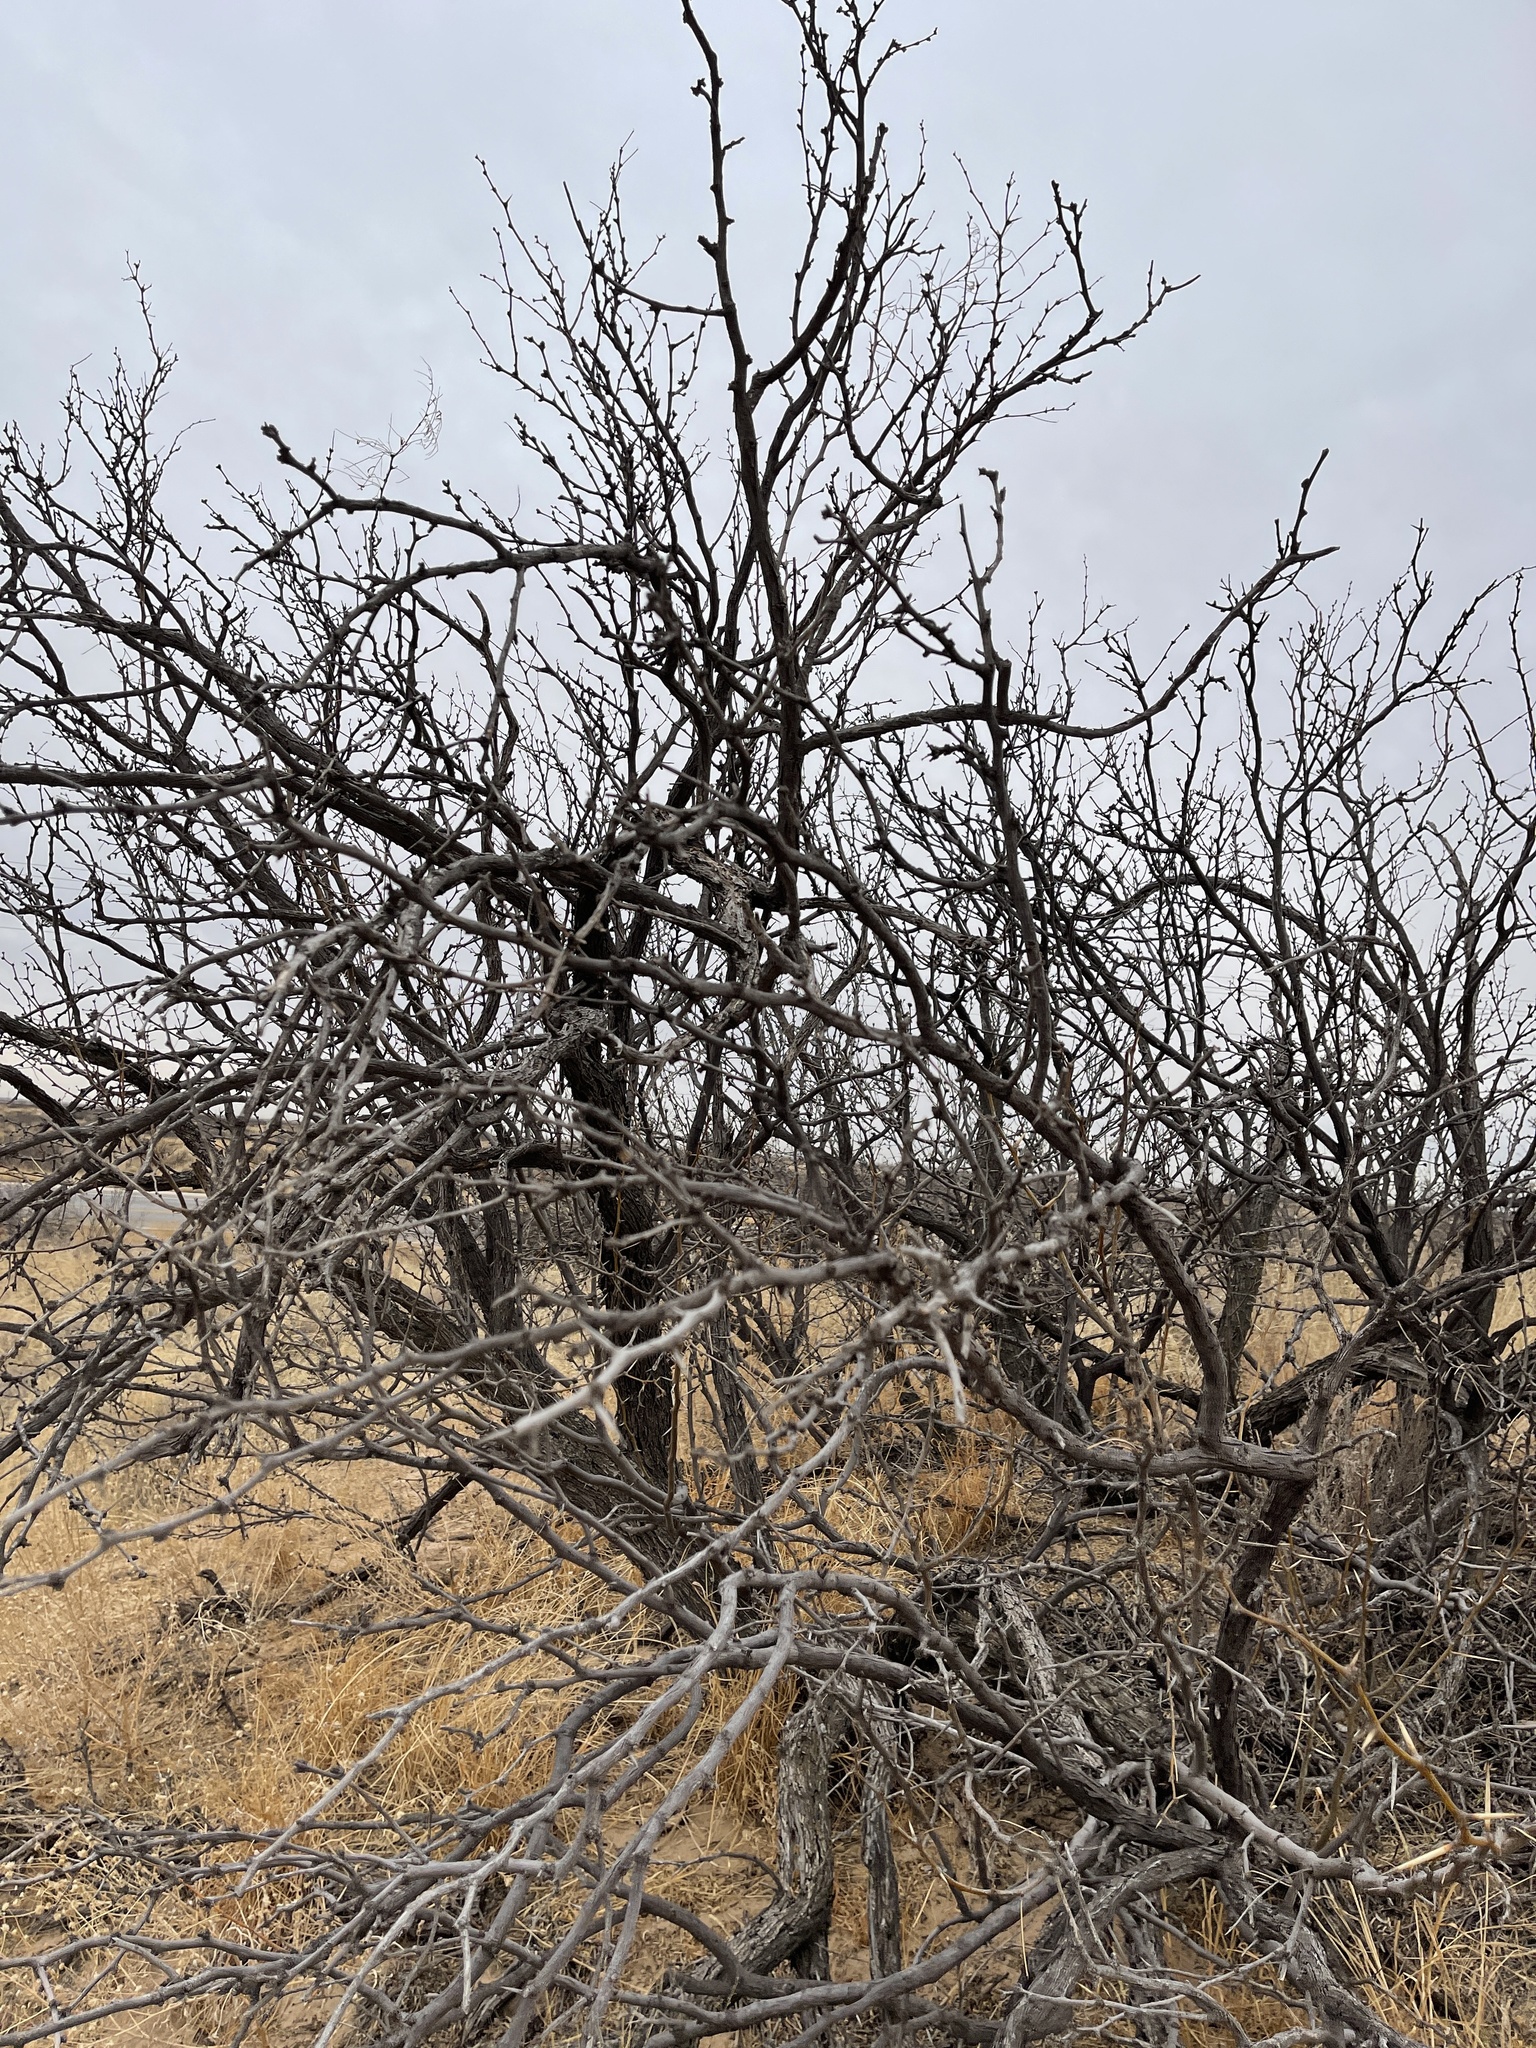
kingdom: Plantae
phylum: Tracheophyta
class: Magnoliopsida
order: Fabales
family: Fabaceae
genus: Prosopis
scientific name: Prosopis glandulosa
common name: Honey mesquite
